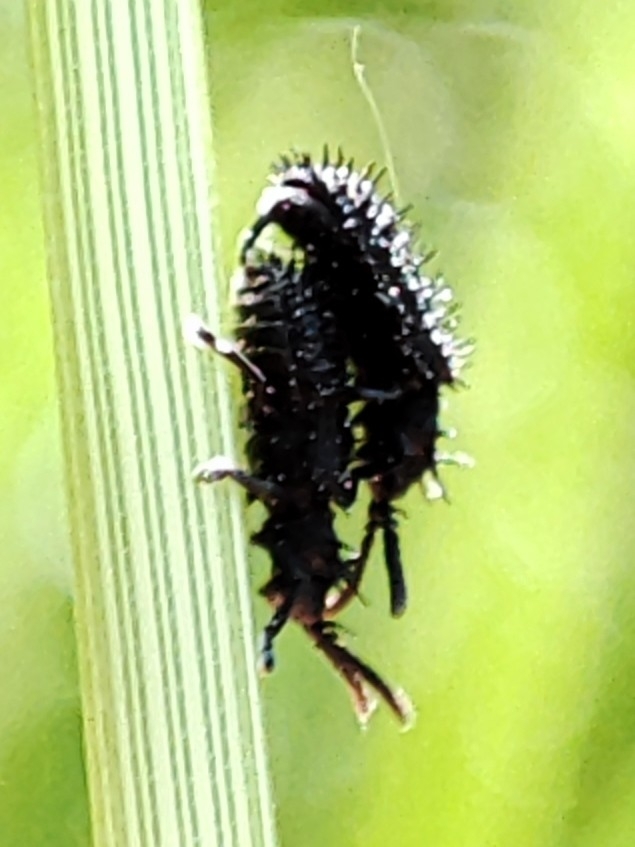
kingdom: Animalia
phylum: Arthropoda
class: Insecta
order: Coleoptera
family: Chrysomelidae
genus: Hispa
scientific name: Hispa atra
